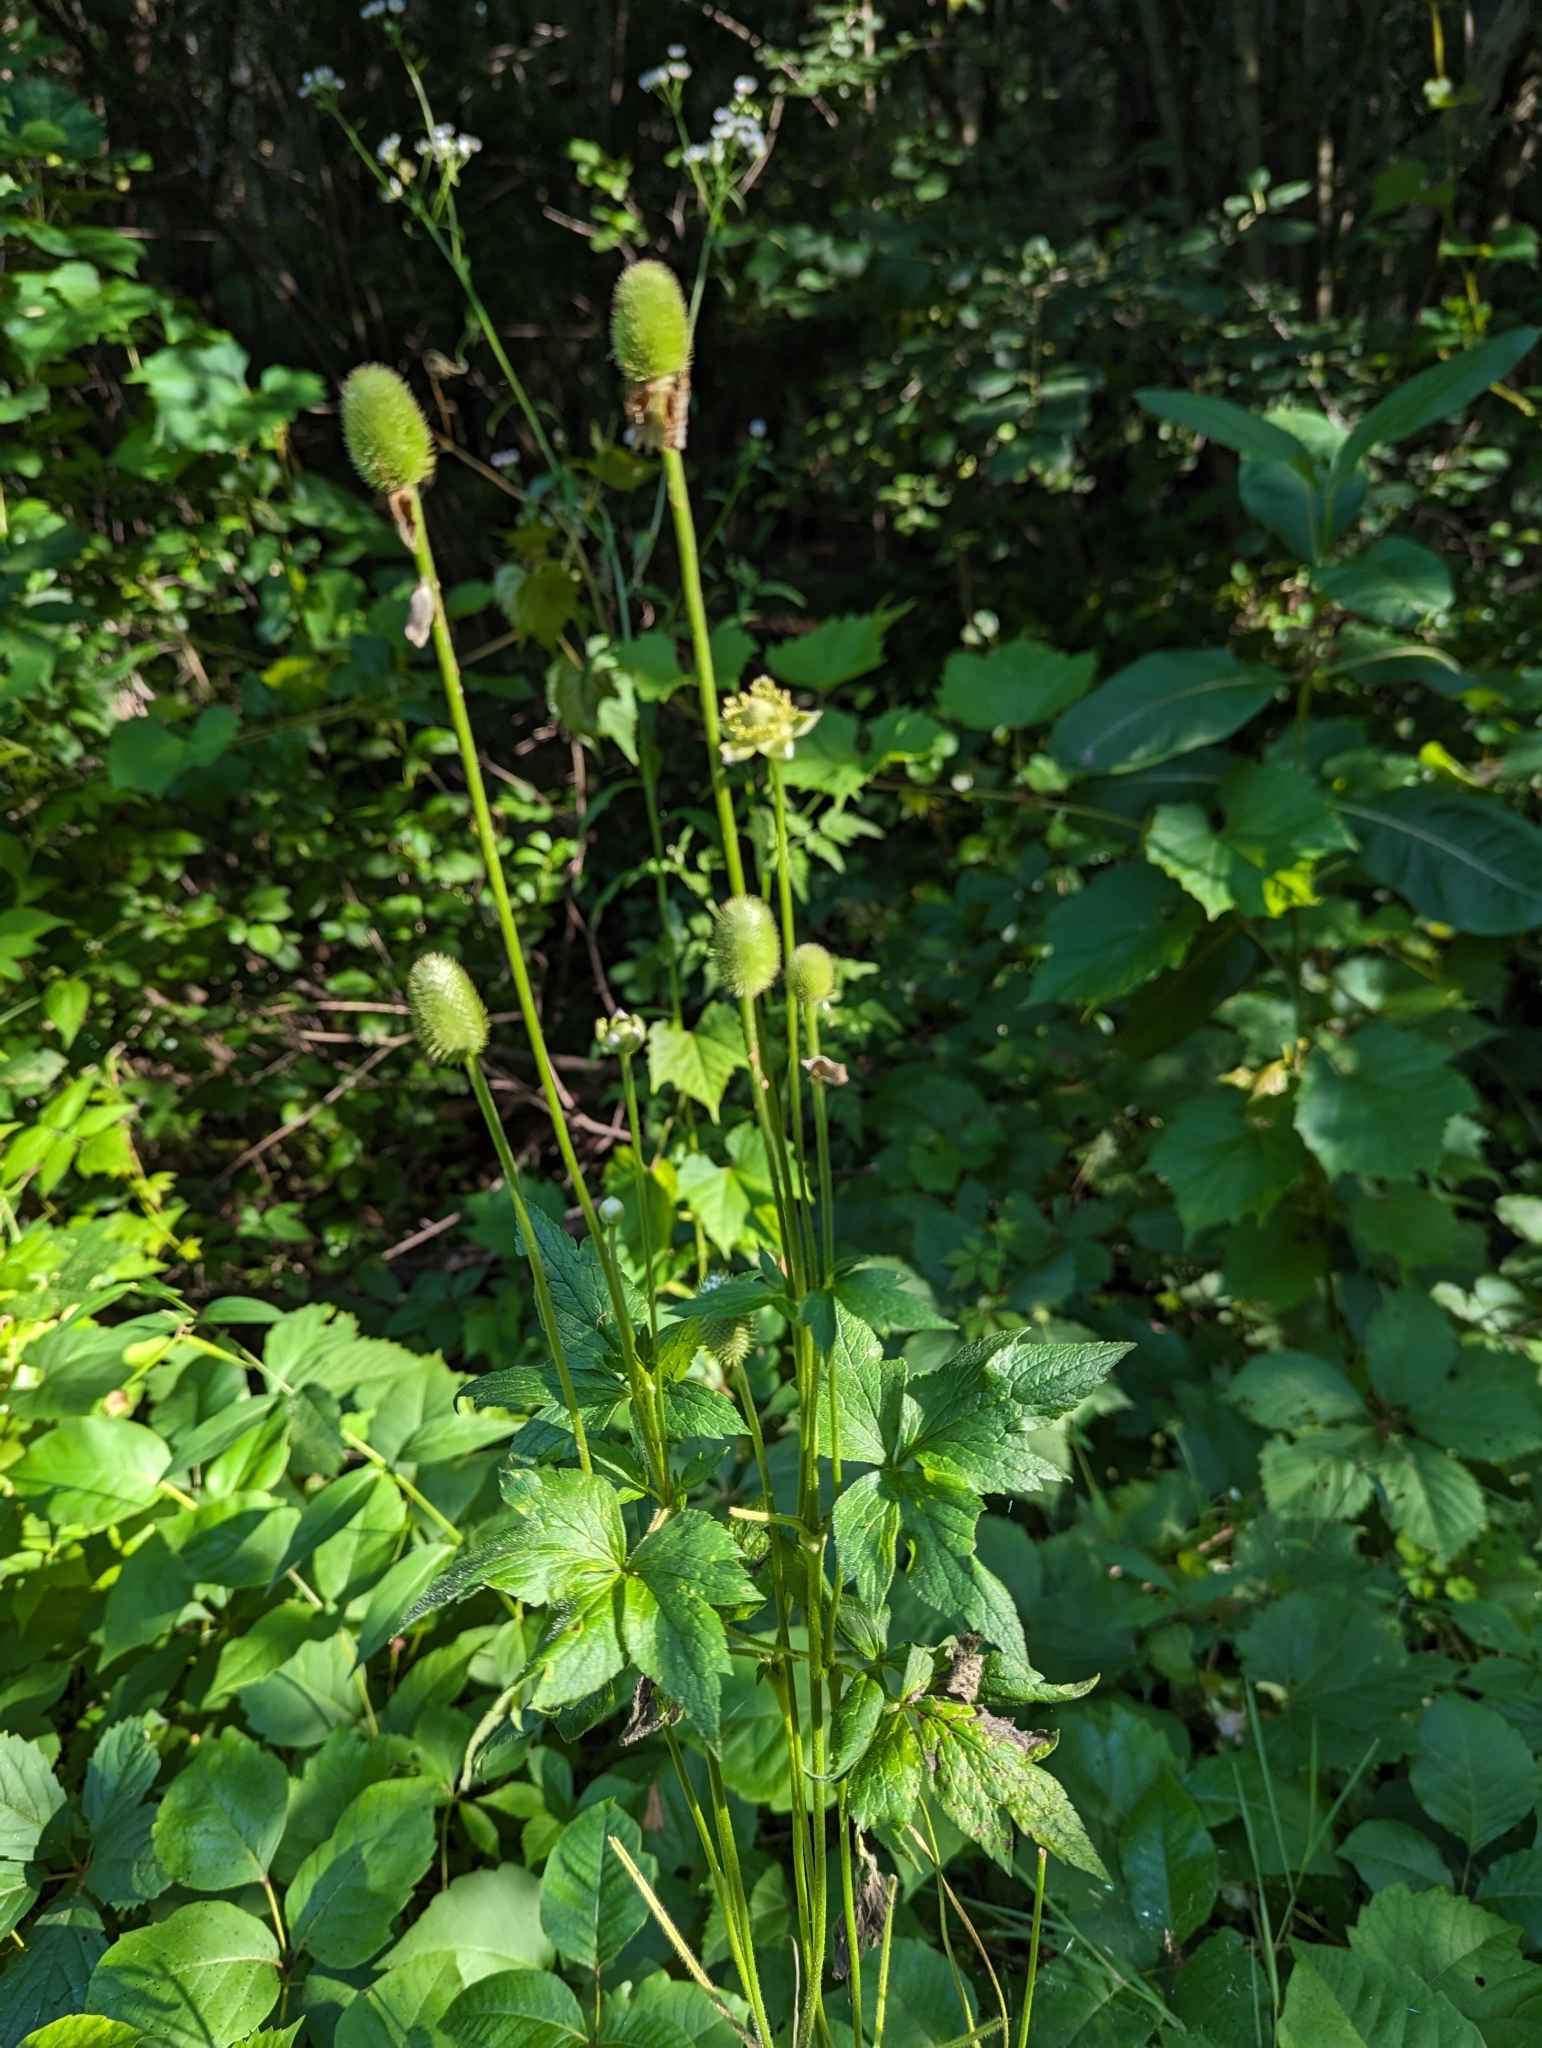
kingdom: Plantae
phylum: Tracheophyta
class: Magnoliopsida
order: Ranunculales
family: Ranunculaceae
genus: Anemone
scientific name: Anemone virginiana
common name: Tall anemone
